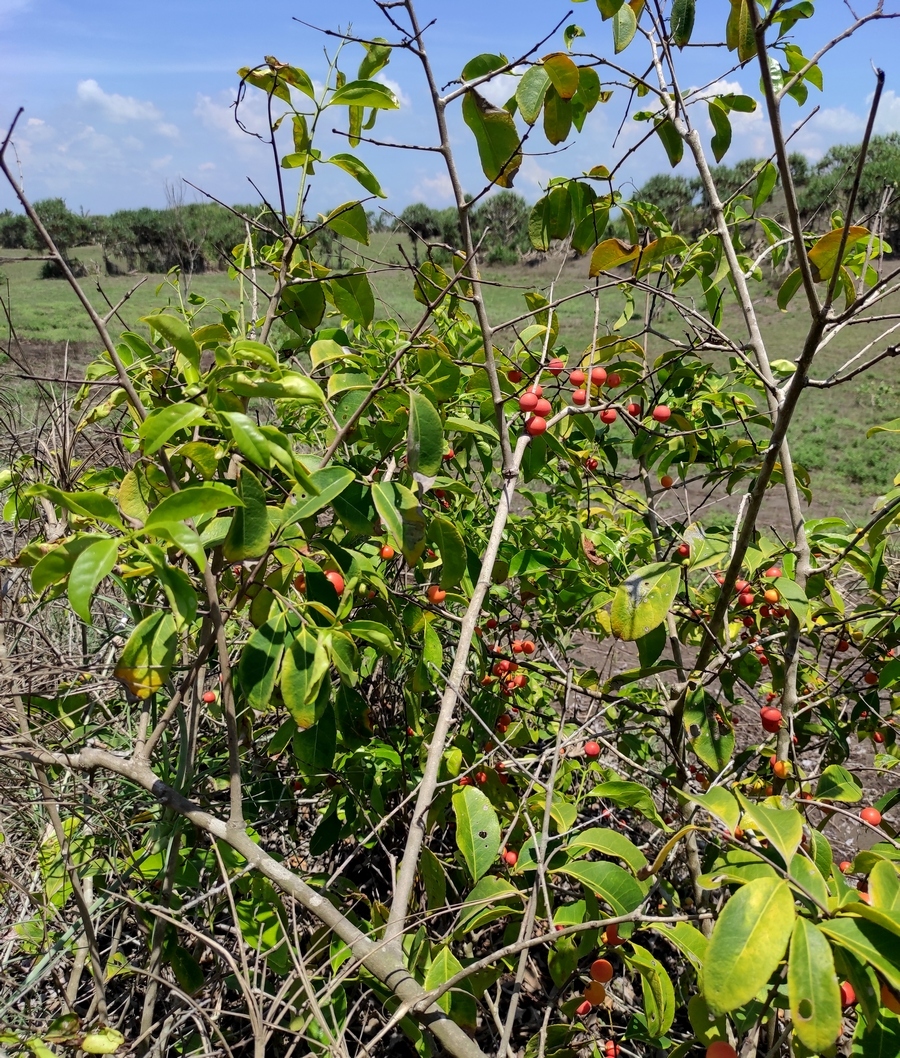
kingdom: Plantae
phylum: Tracheophyta
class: Magnoliopsida
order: Celastrales
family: Celastraceae
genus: Salacia
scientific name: Salacia chinensis
